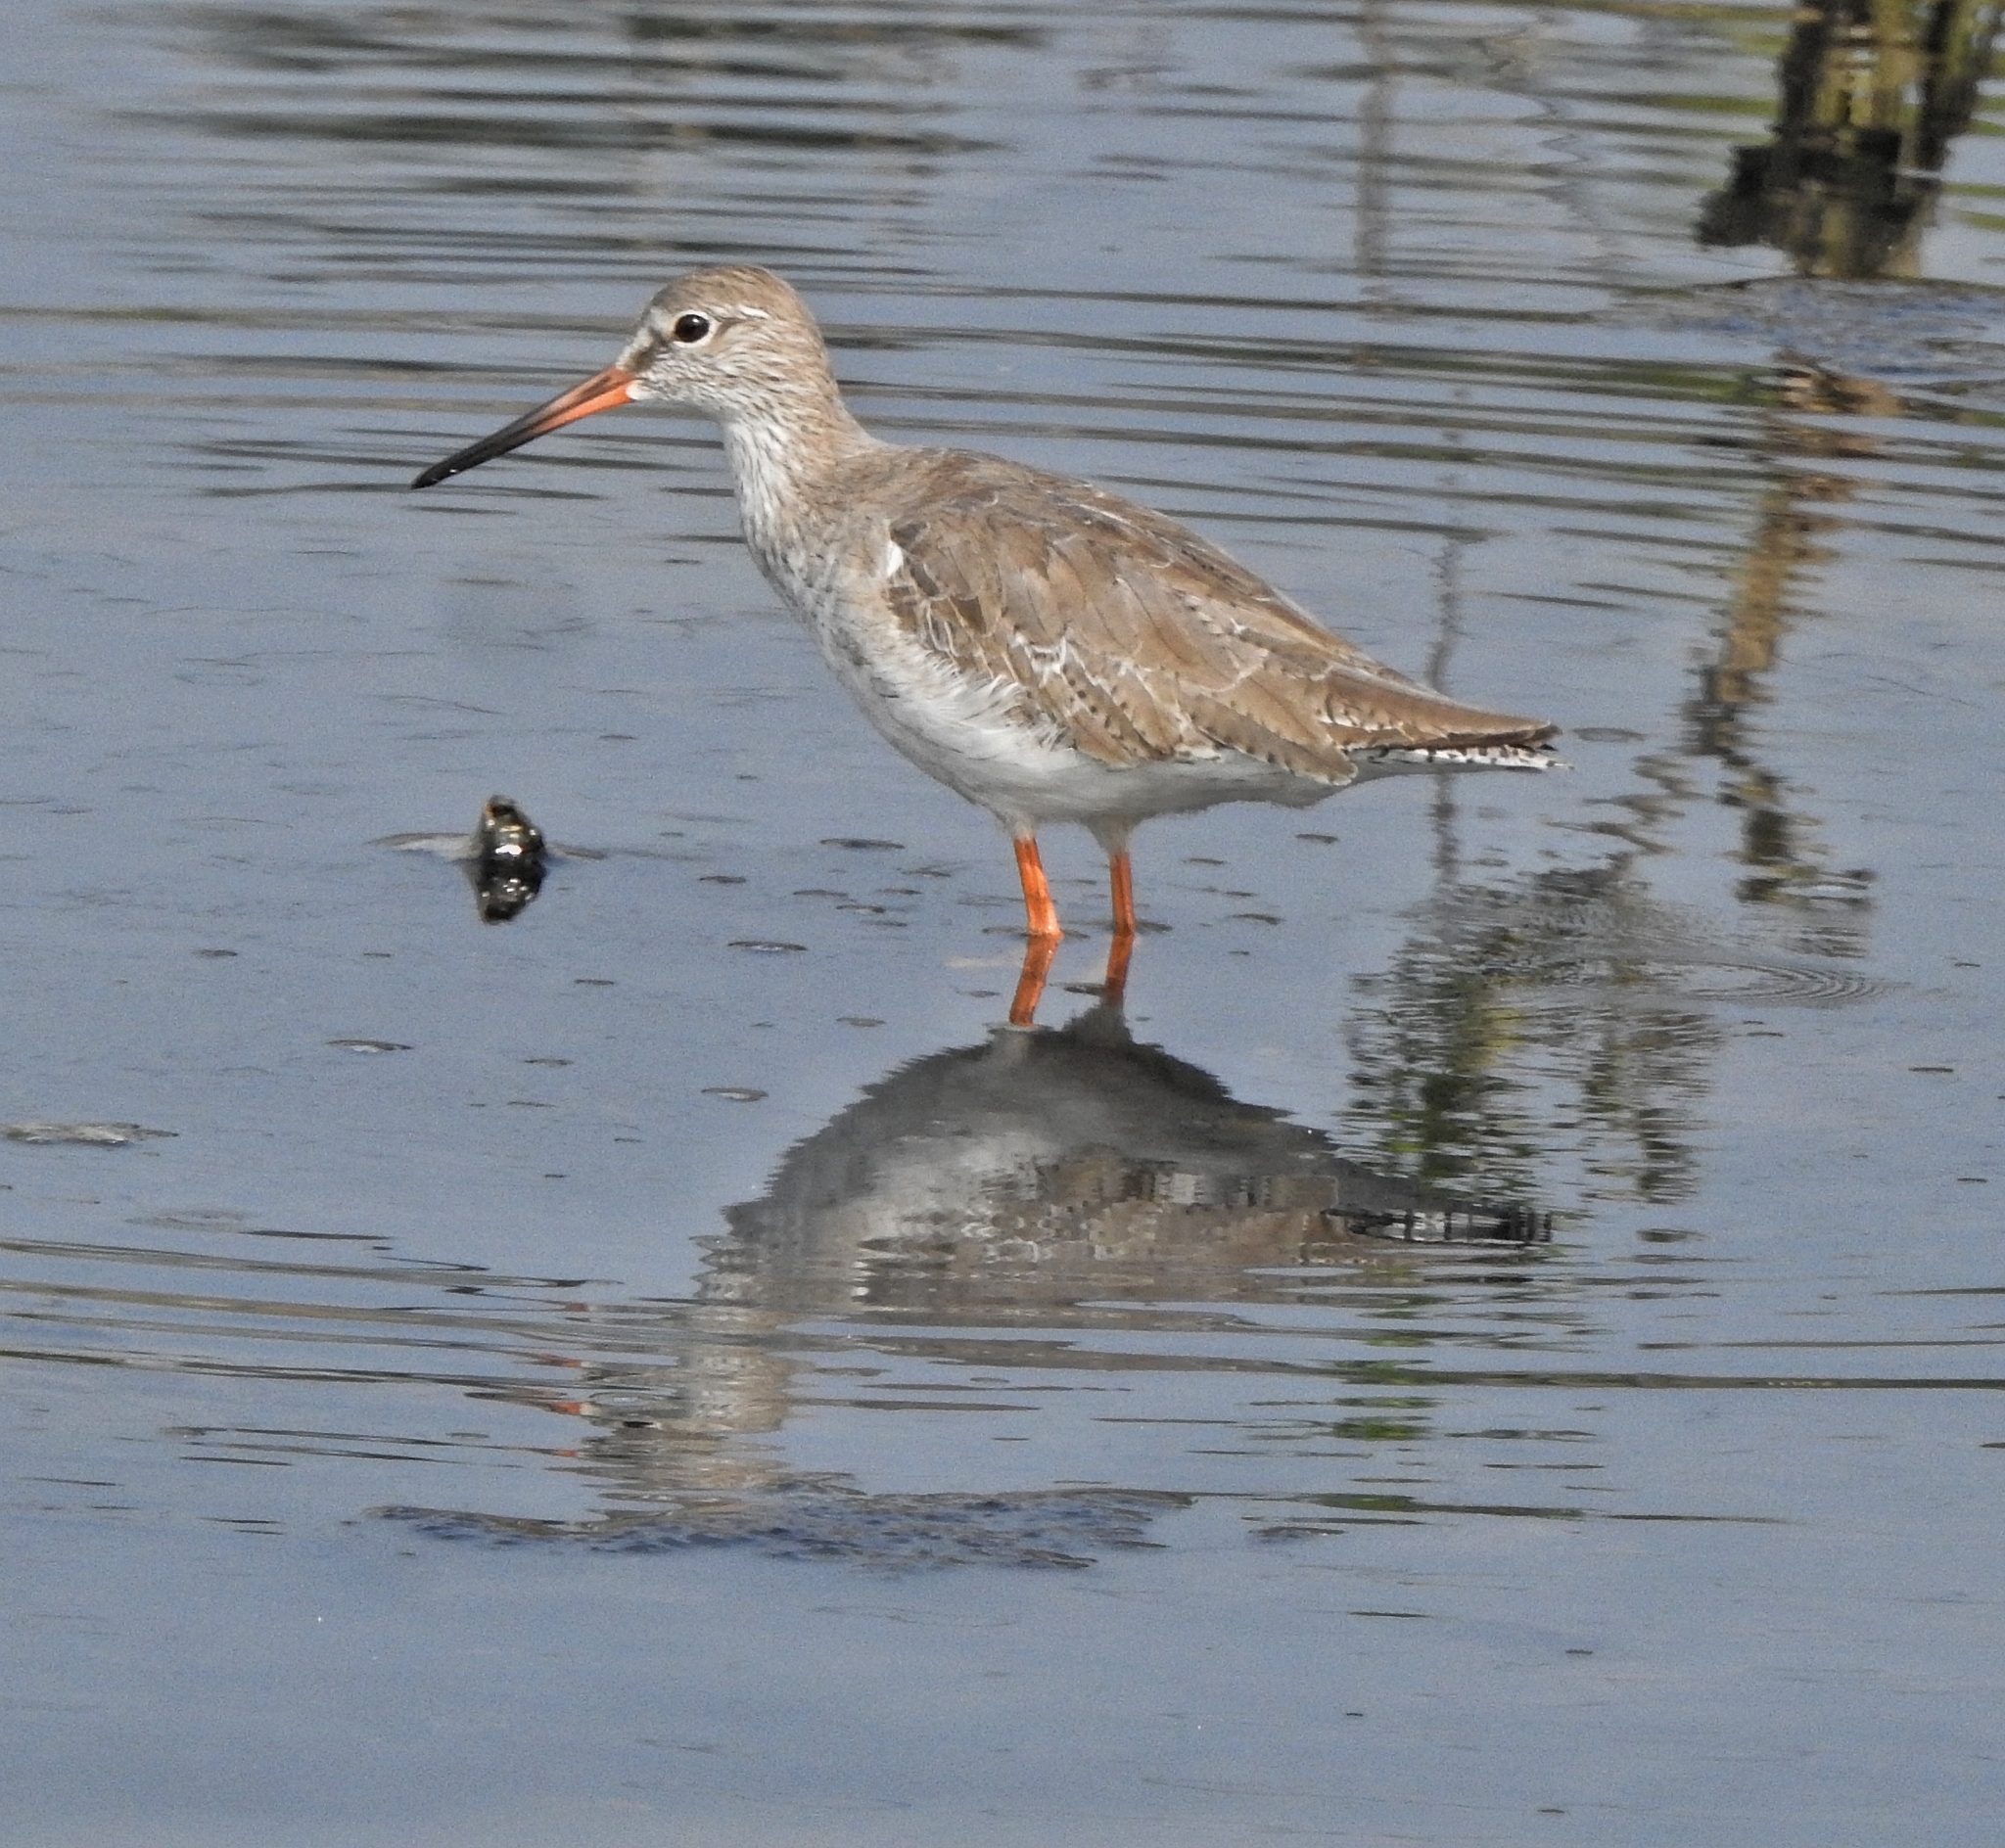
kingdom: Animalia
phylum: Chordata
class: Aves
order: Charadriiformes
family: Scolopacidae
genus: Tringa
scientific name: Tringa totanus
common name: Common redshank
